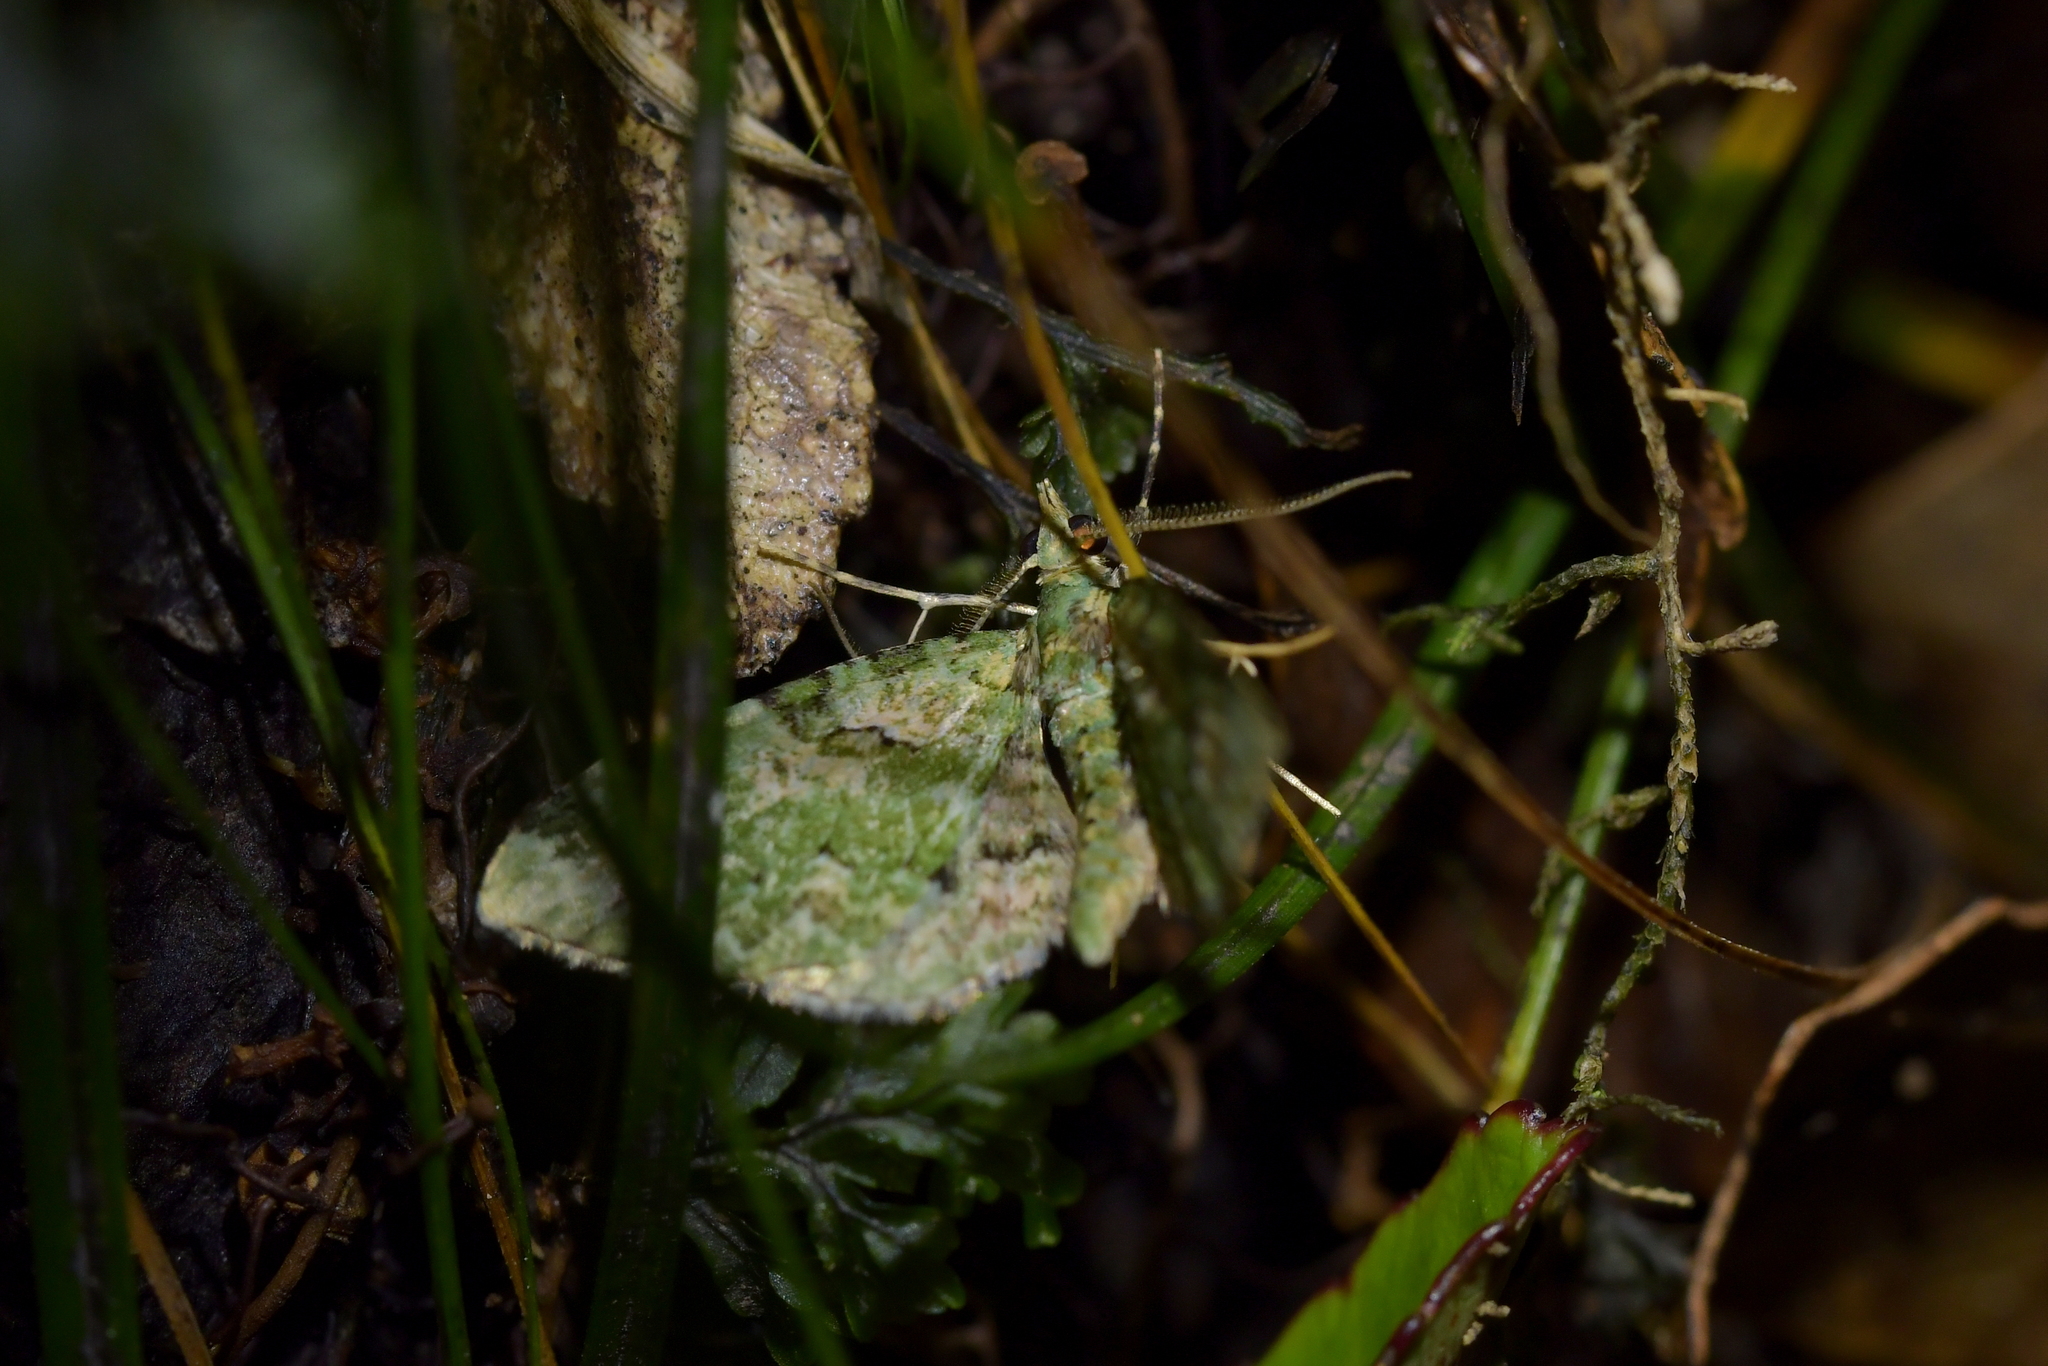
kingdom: Animalia
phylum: Arthropoda
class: Insecta
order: Lepidoptera
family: Geometridae
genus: Pasiphila
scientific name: Pasiphila semochlora
